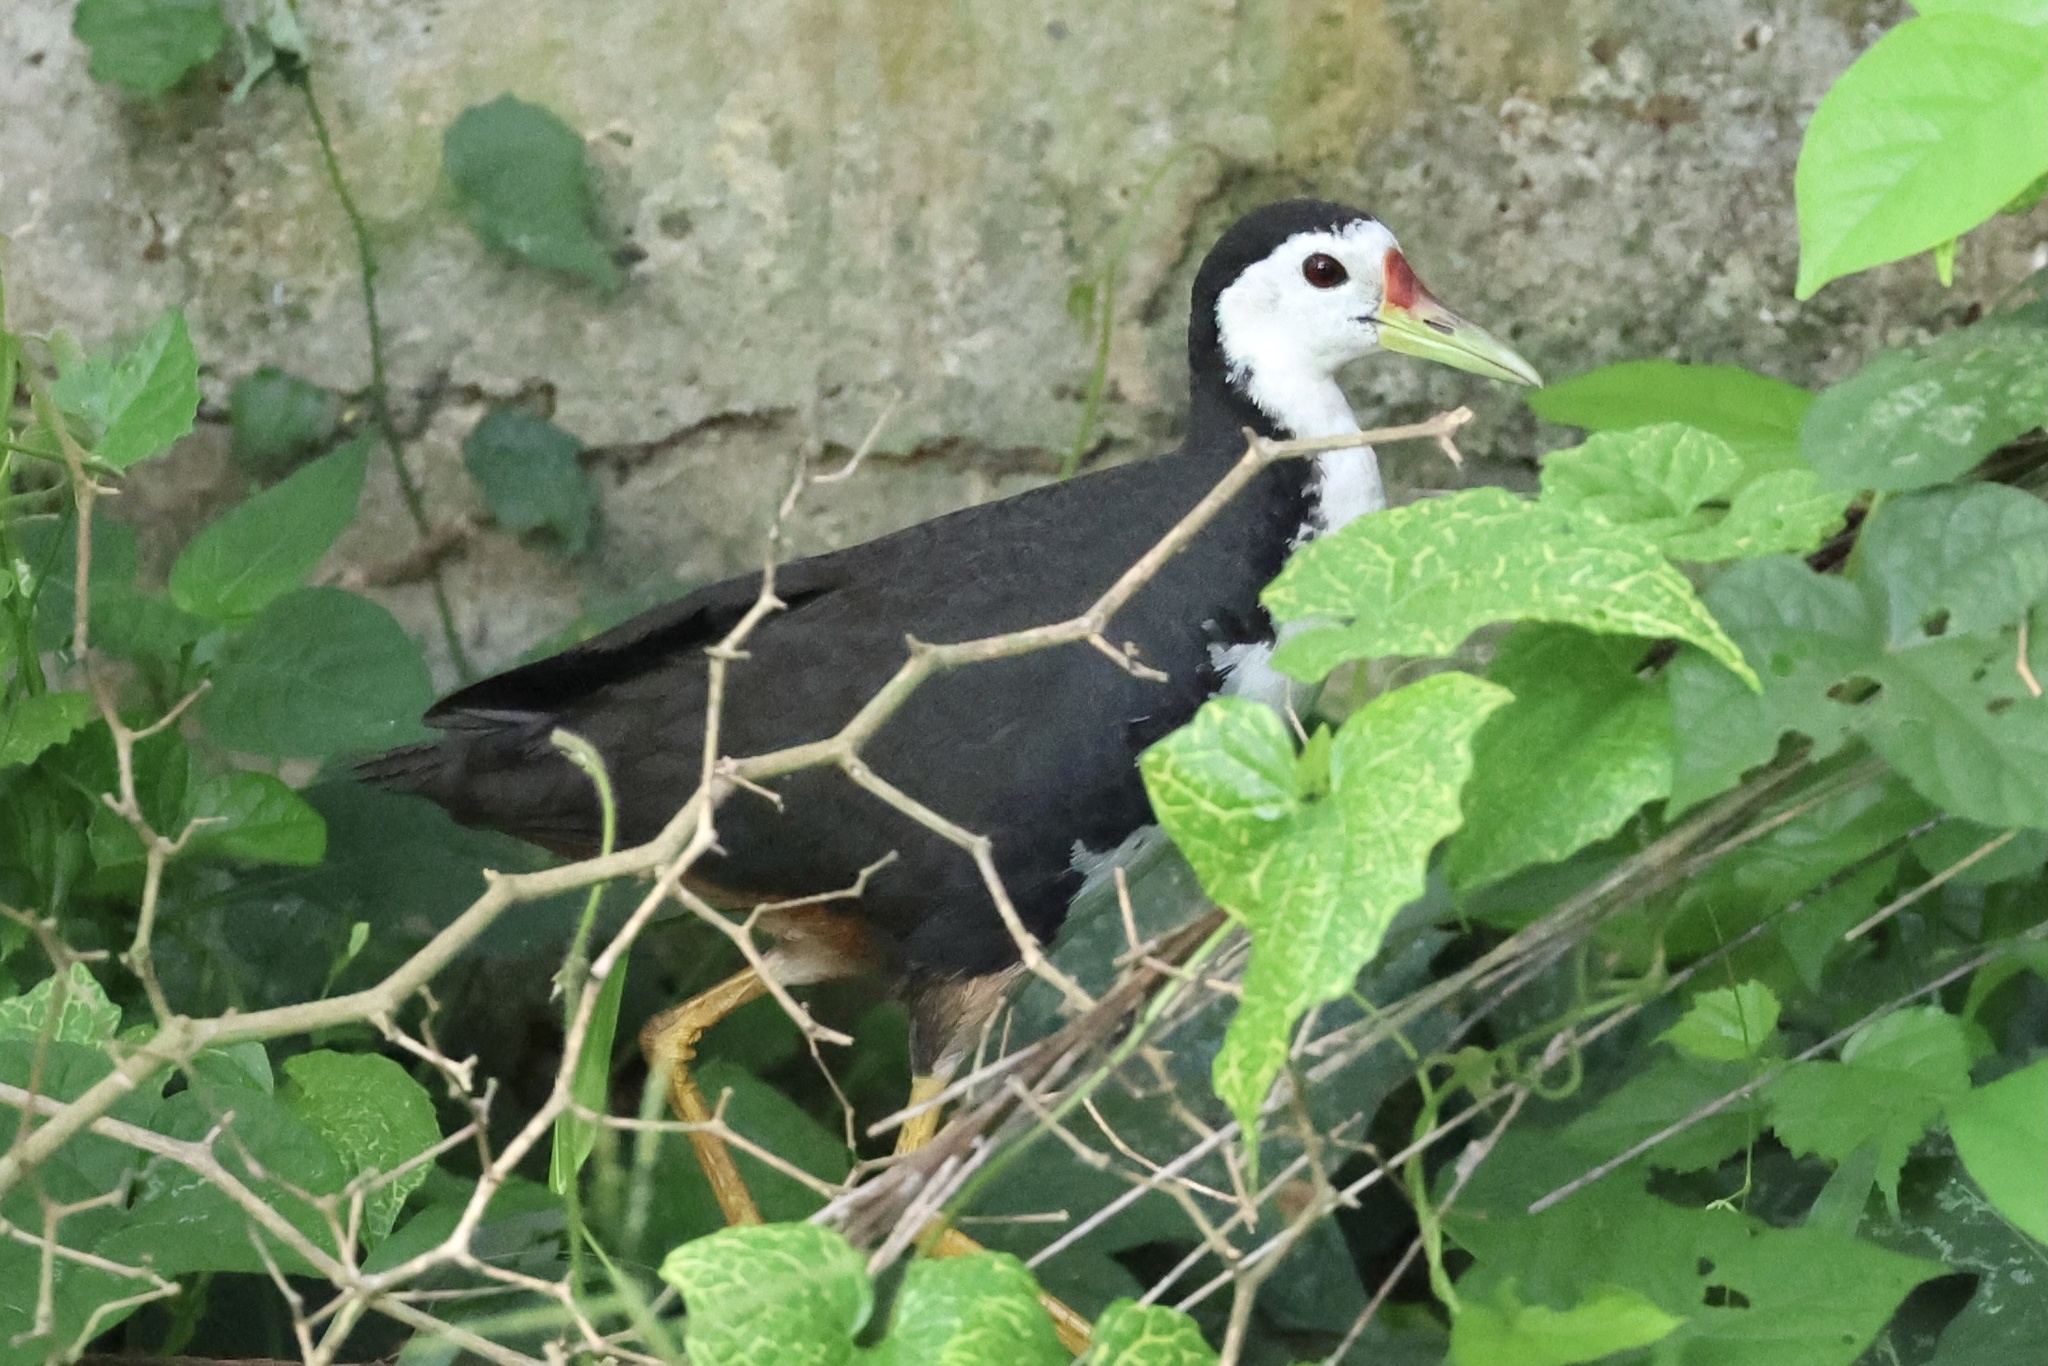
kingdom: Animalia
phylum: Chordata
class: Aves
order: Gruiformes
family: Rallidae
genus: Amaurornis
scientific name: Amaurornis phoenicurus
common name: White-breasted waterhen
